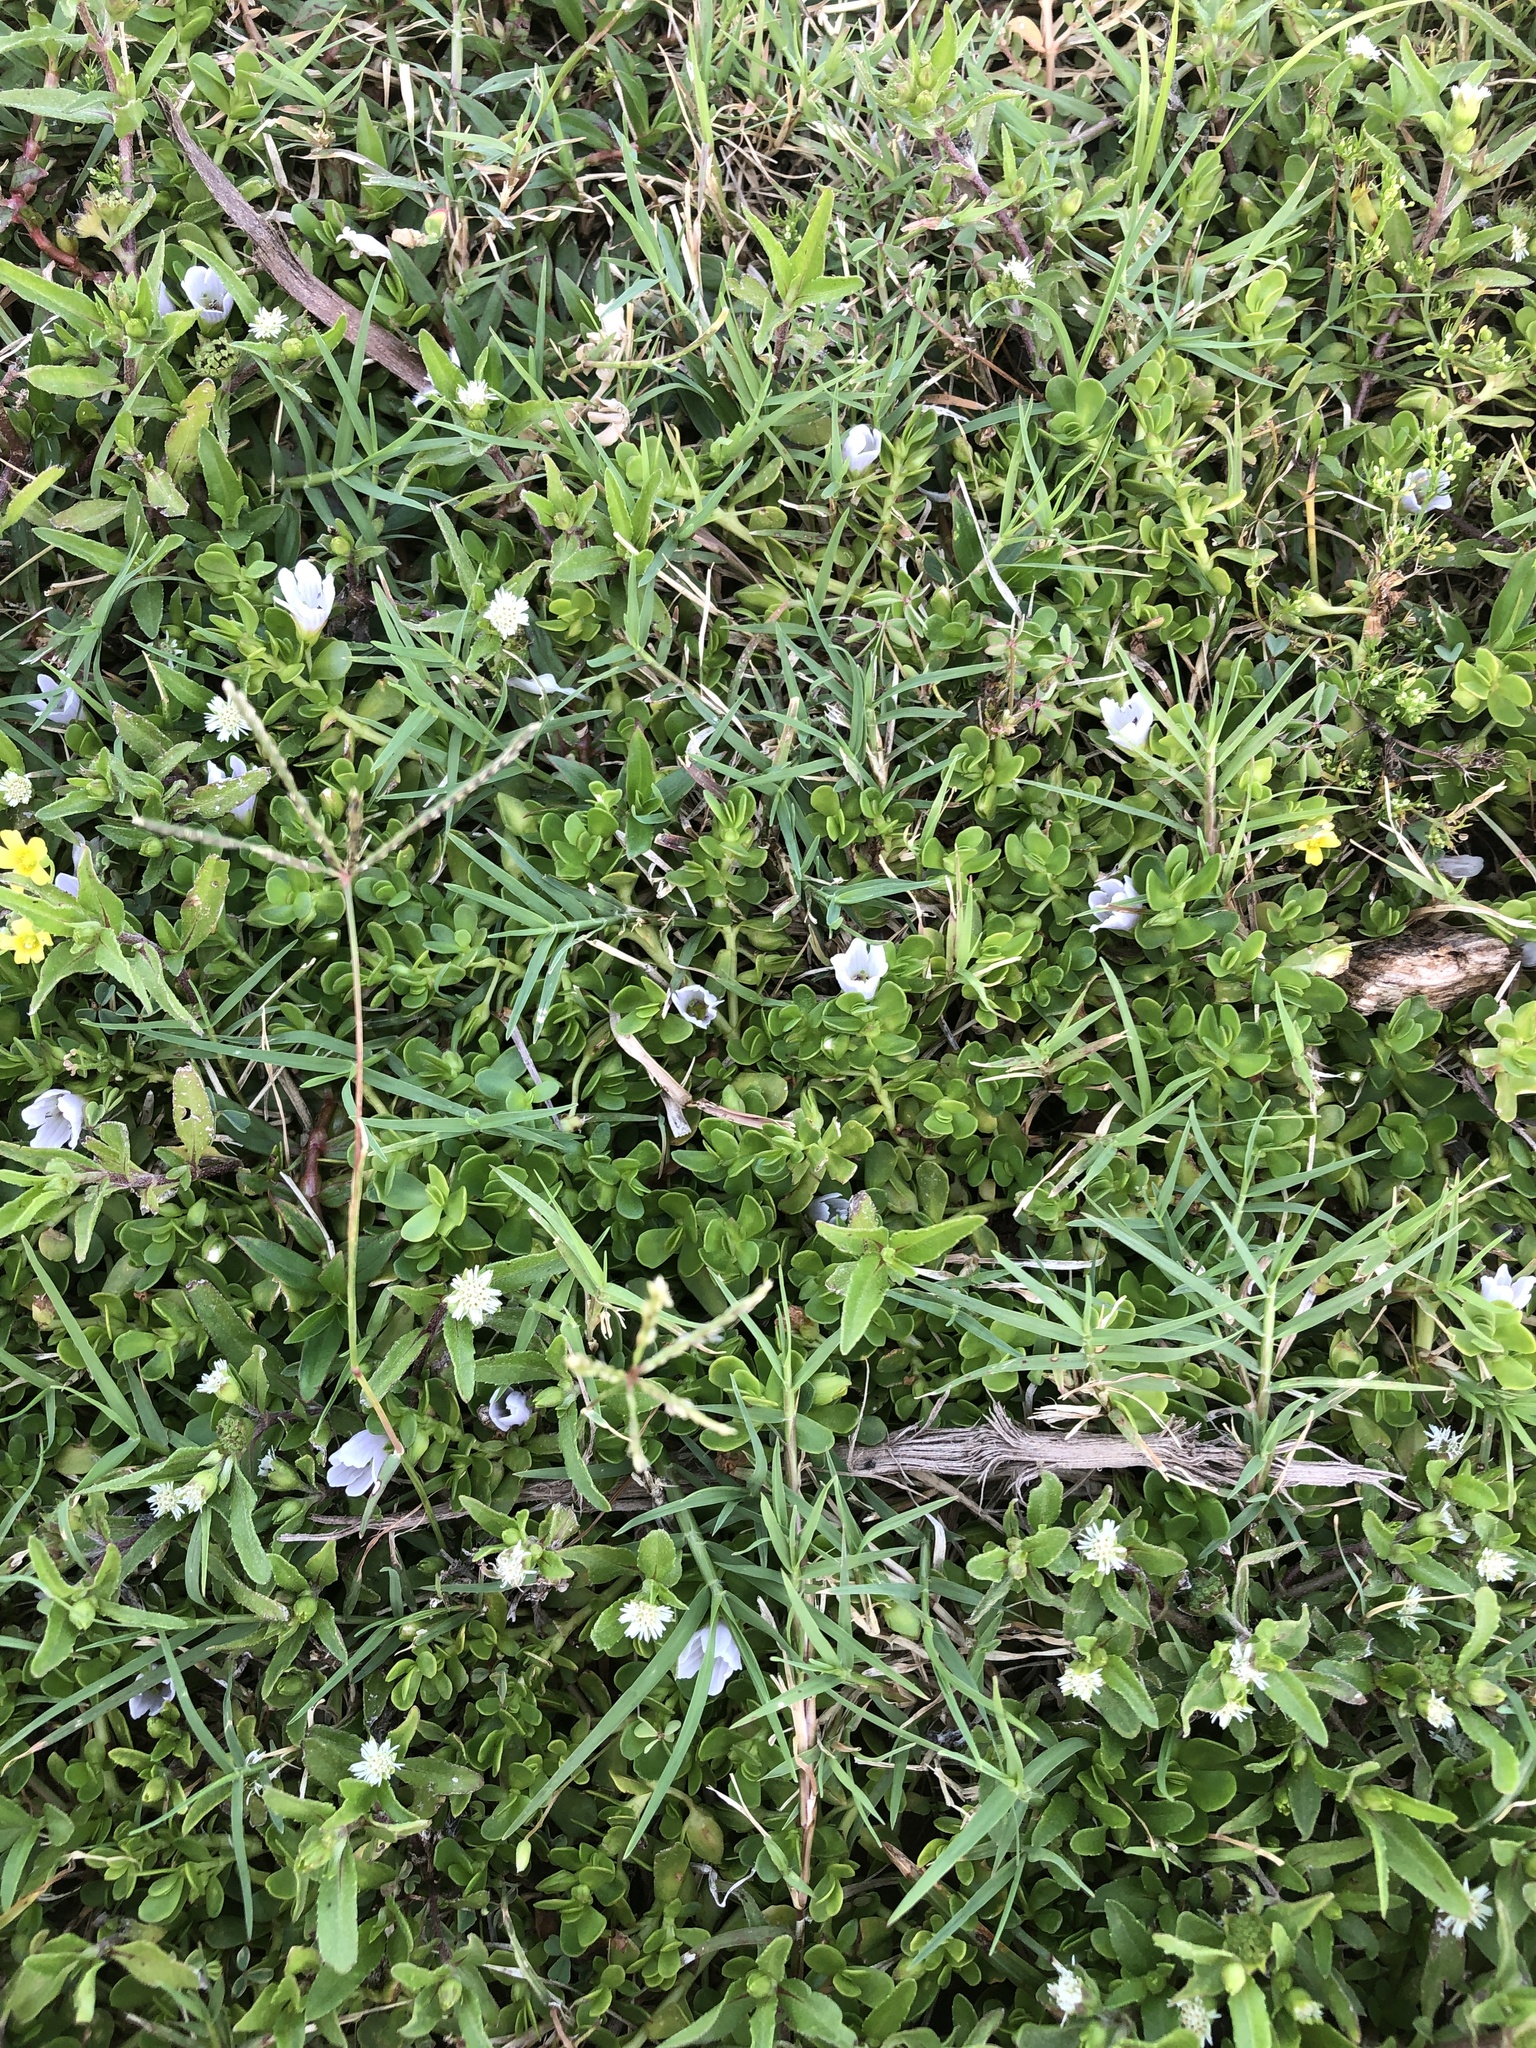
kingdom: Plantae
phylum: Tracheophyta
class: Magnoliopsida
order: Lamiales
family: Plantaginaceae
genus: Bacopa
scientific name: Bacopa monnieri
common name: Indian-pennywort
